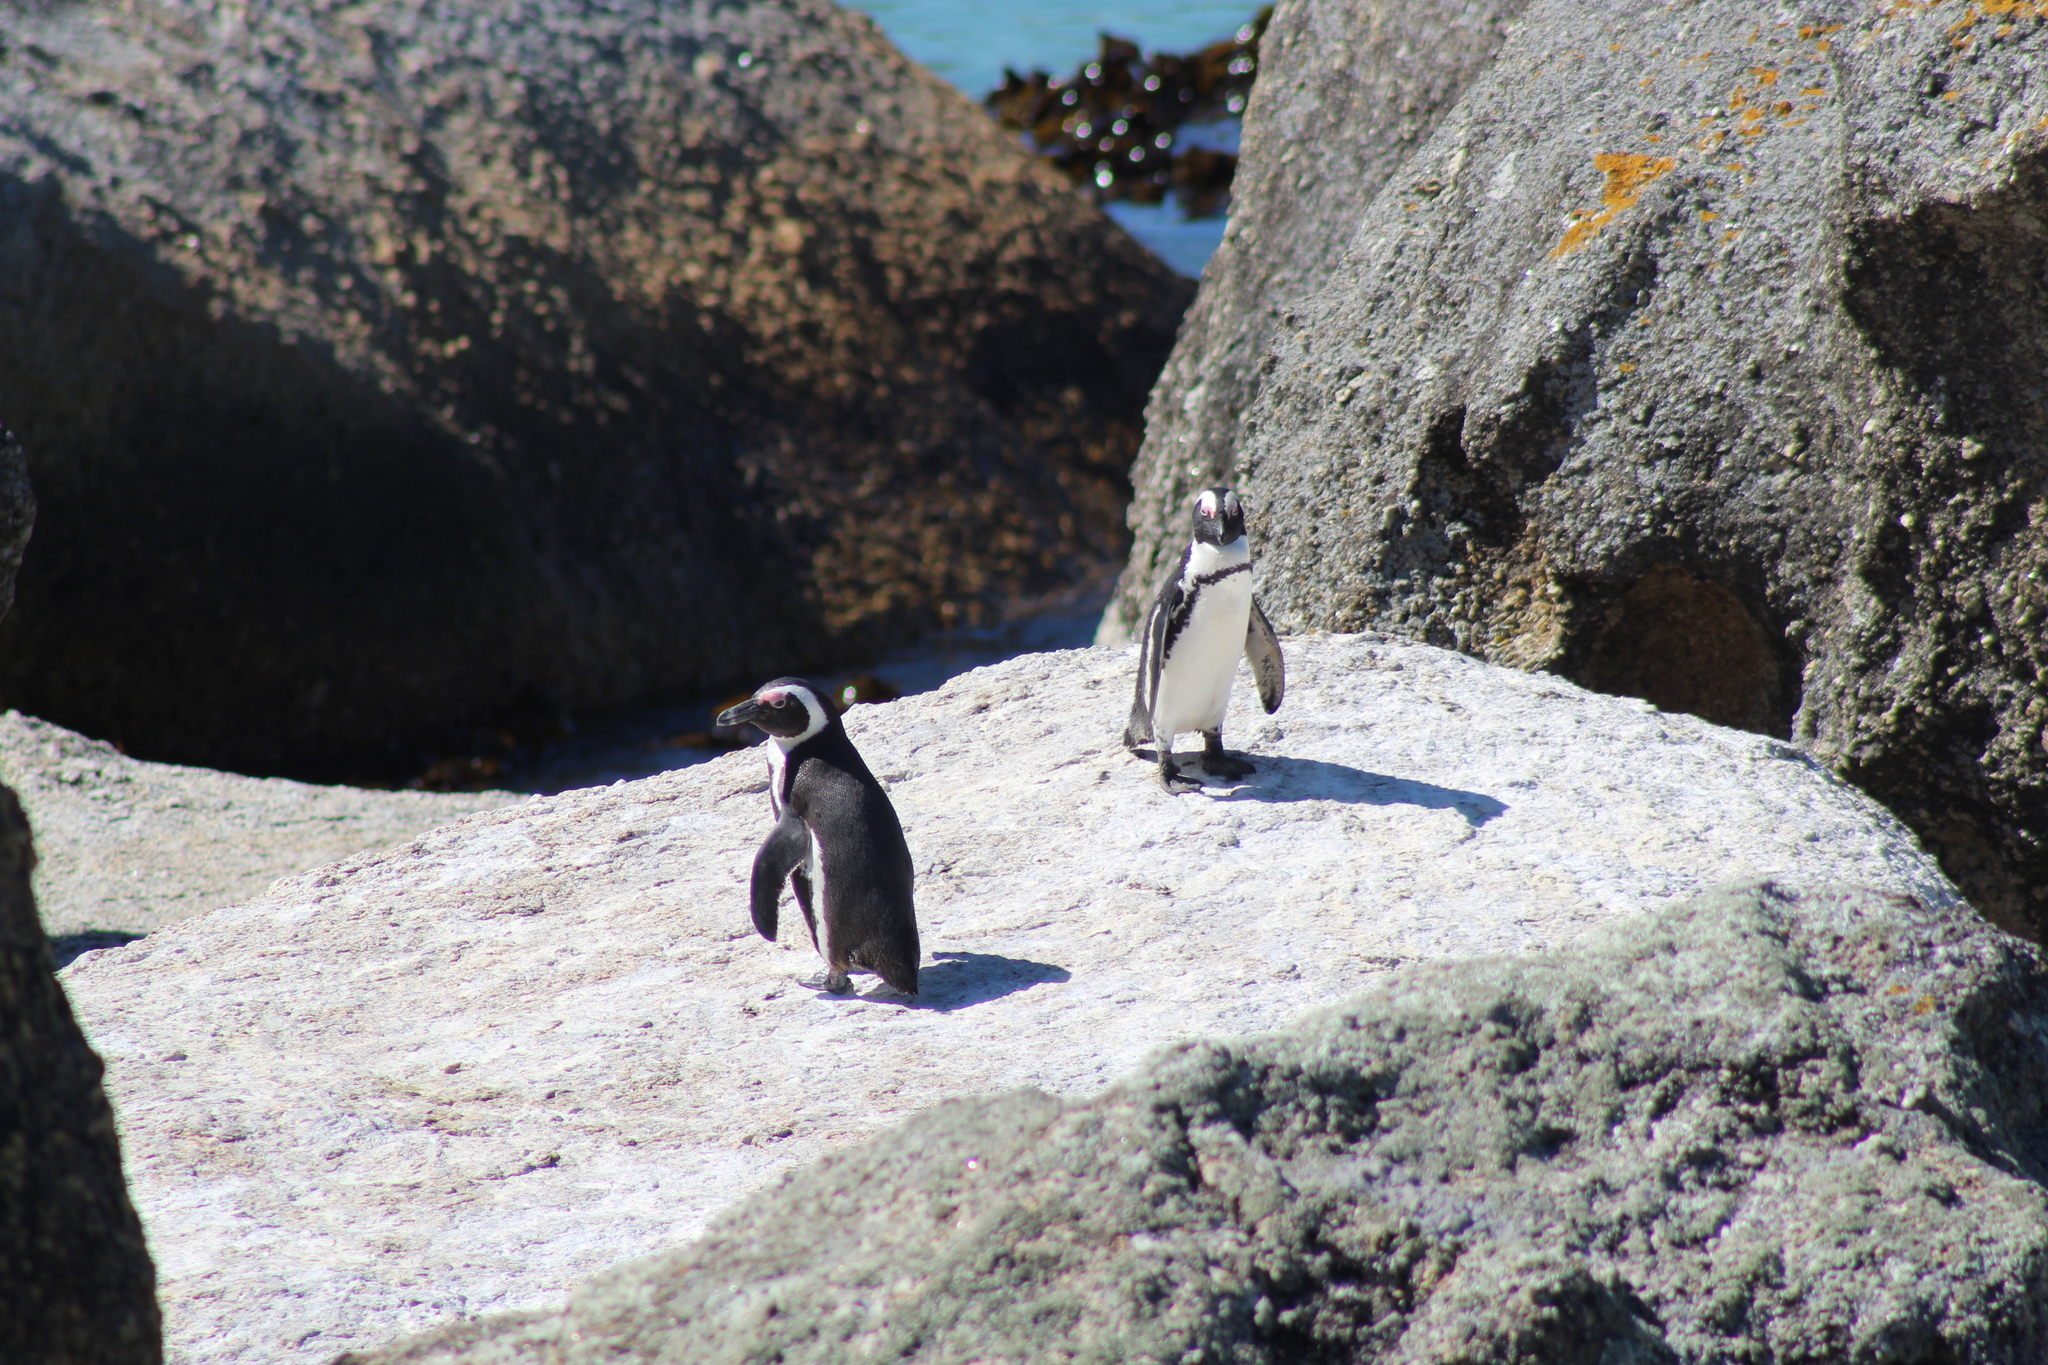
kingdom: Animalia
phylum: Chordata
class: Aves
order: Sphenisciformes
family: Spheniscidae
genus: Spheniscus
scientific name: Spheniscus demersus
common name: African penguin
